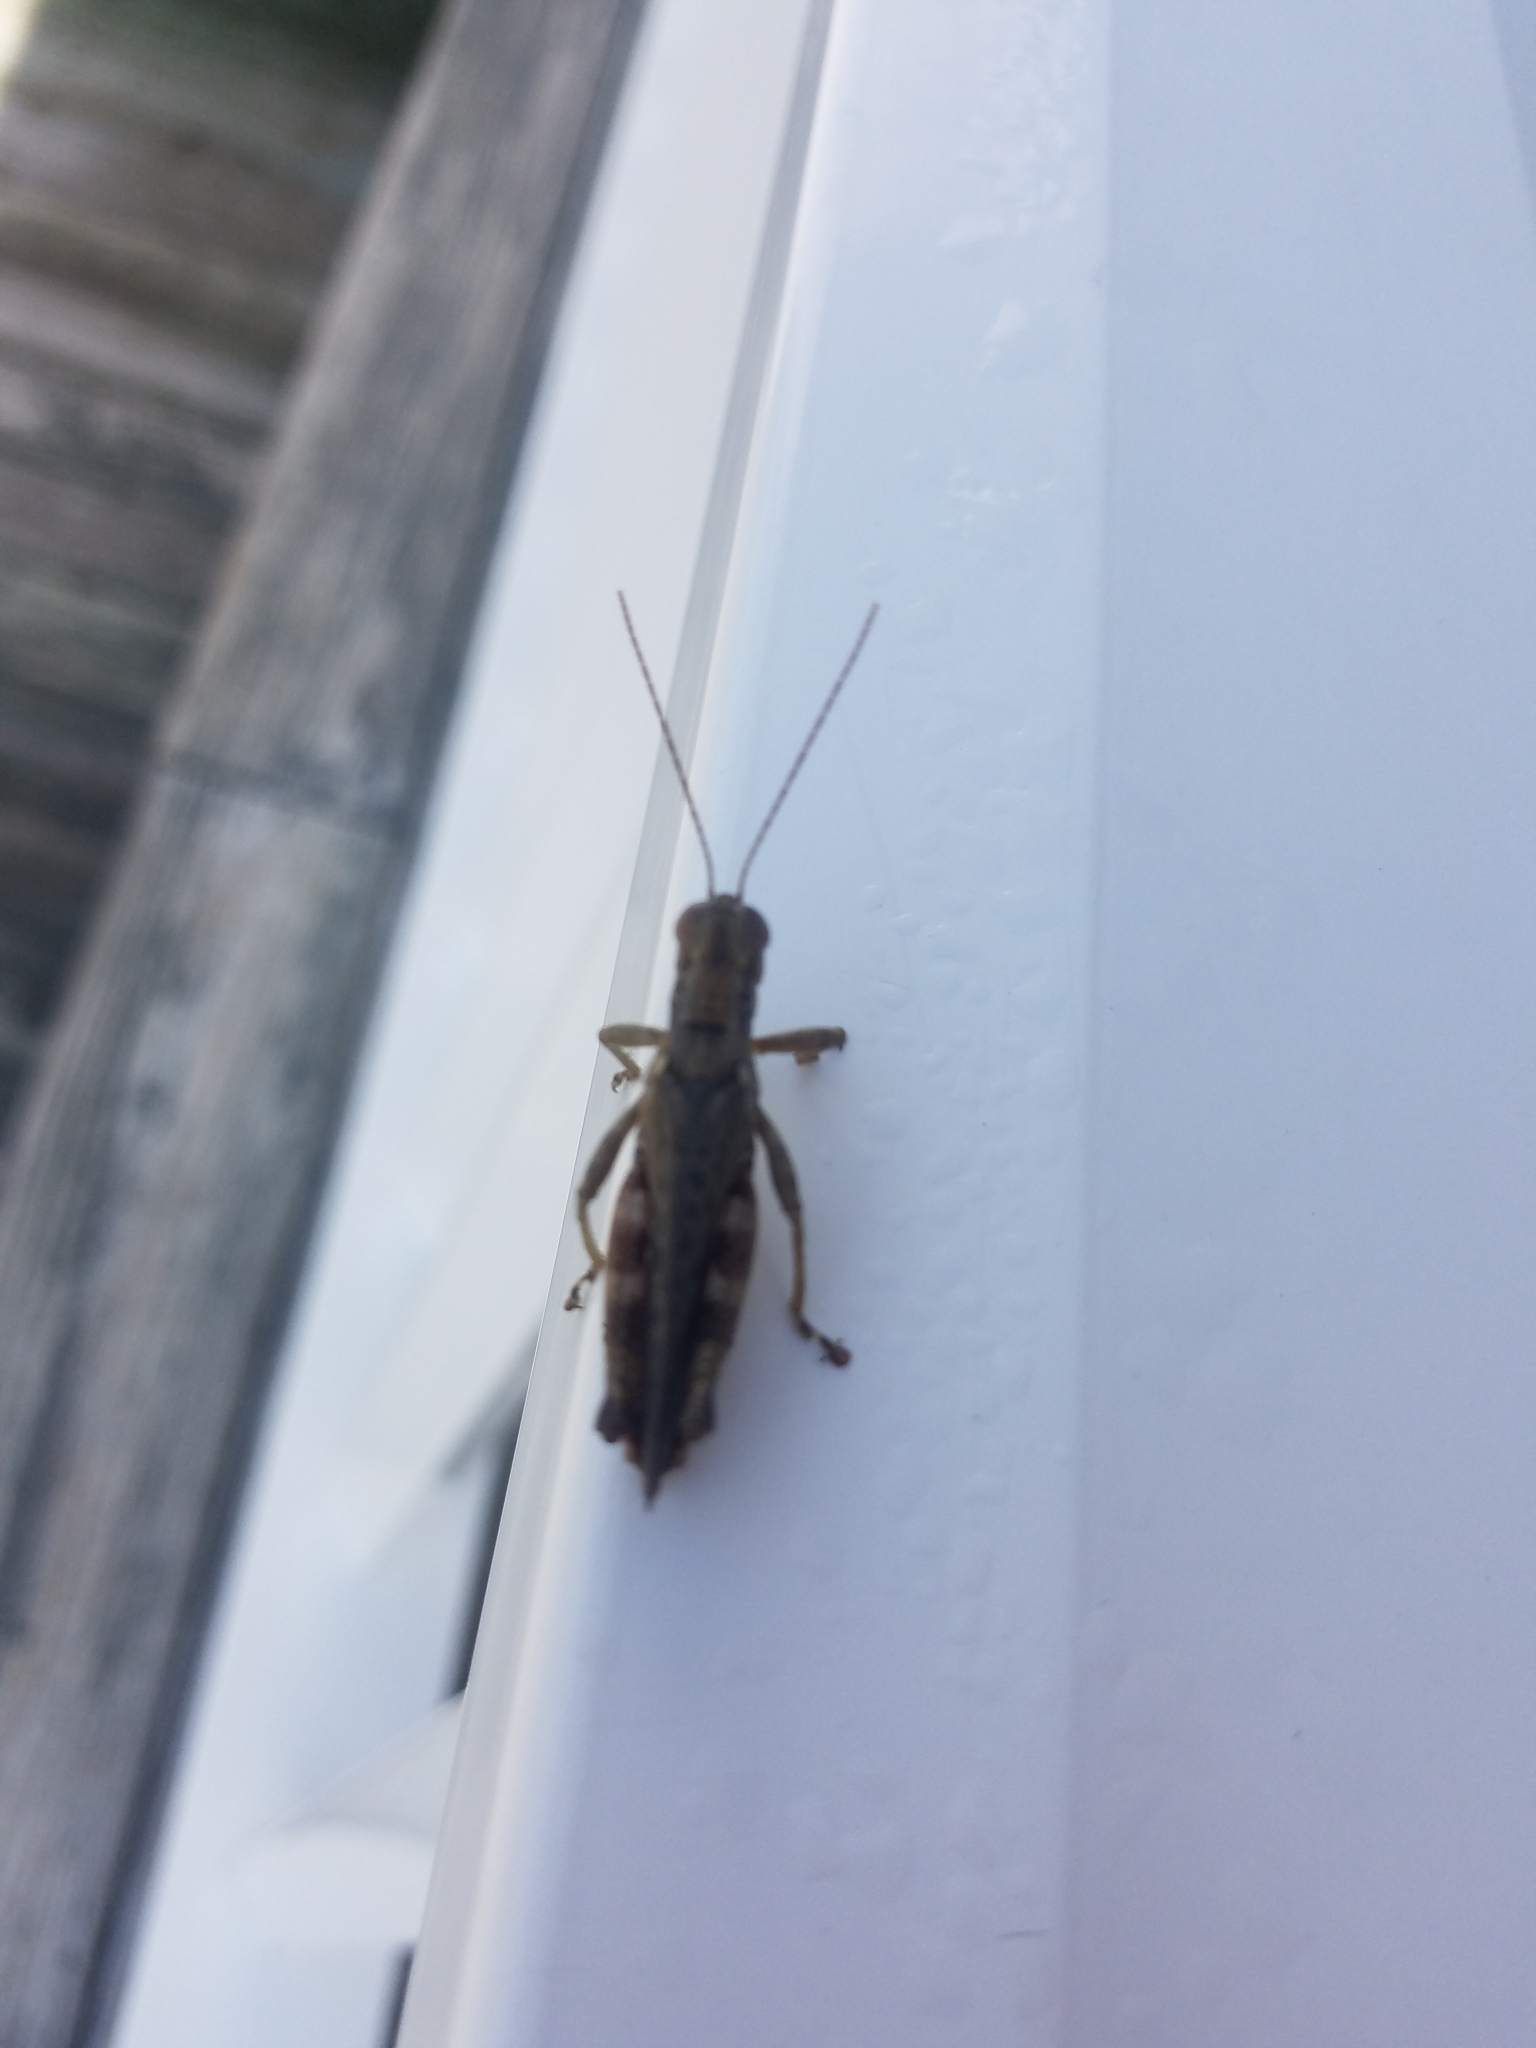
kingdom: Animalia
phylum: Arthropoda
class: Insecta
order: Orthoptera
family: Acrididae
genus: Melanoplus
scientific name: Melanoplus punctulatus
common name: Pine-tree spur-throat grasshopper
